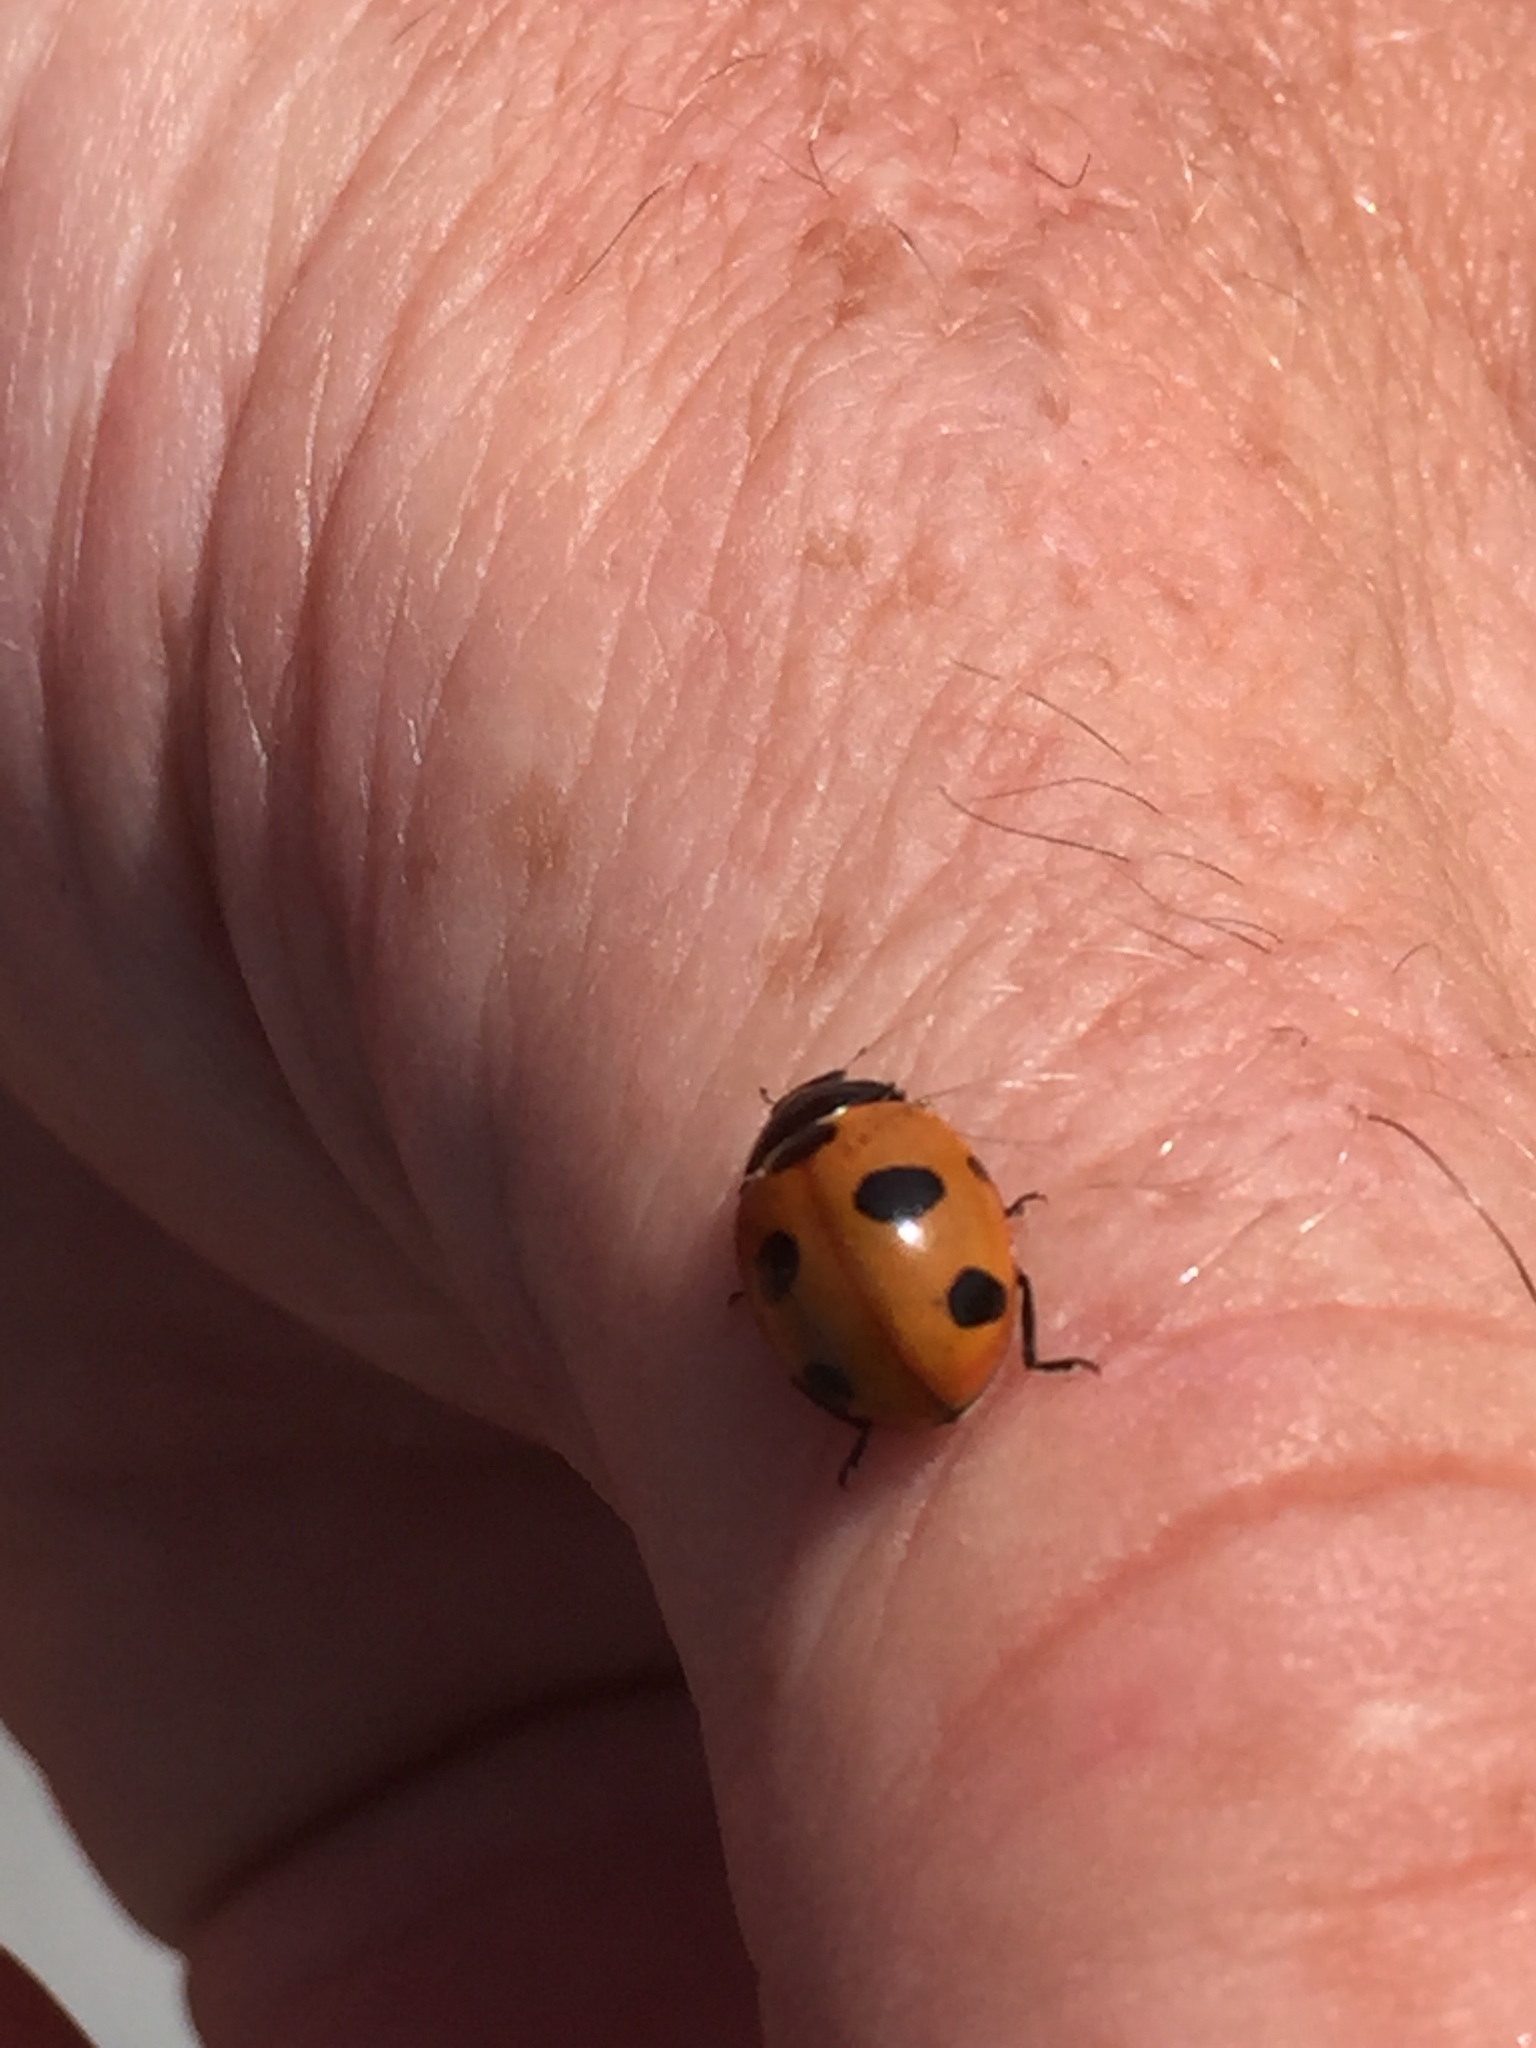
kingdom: Animalia
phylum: Arthropoda
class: Insecta
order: Coleoptera
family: Coccinellidae
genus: Coccinella
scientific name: Coccinella magnifica
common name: Scarce 7-spot ladybird
